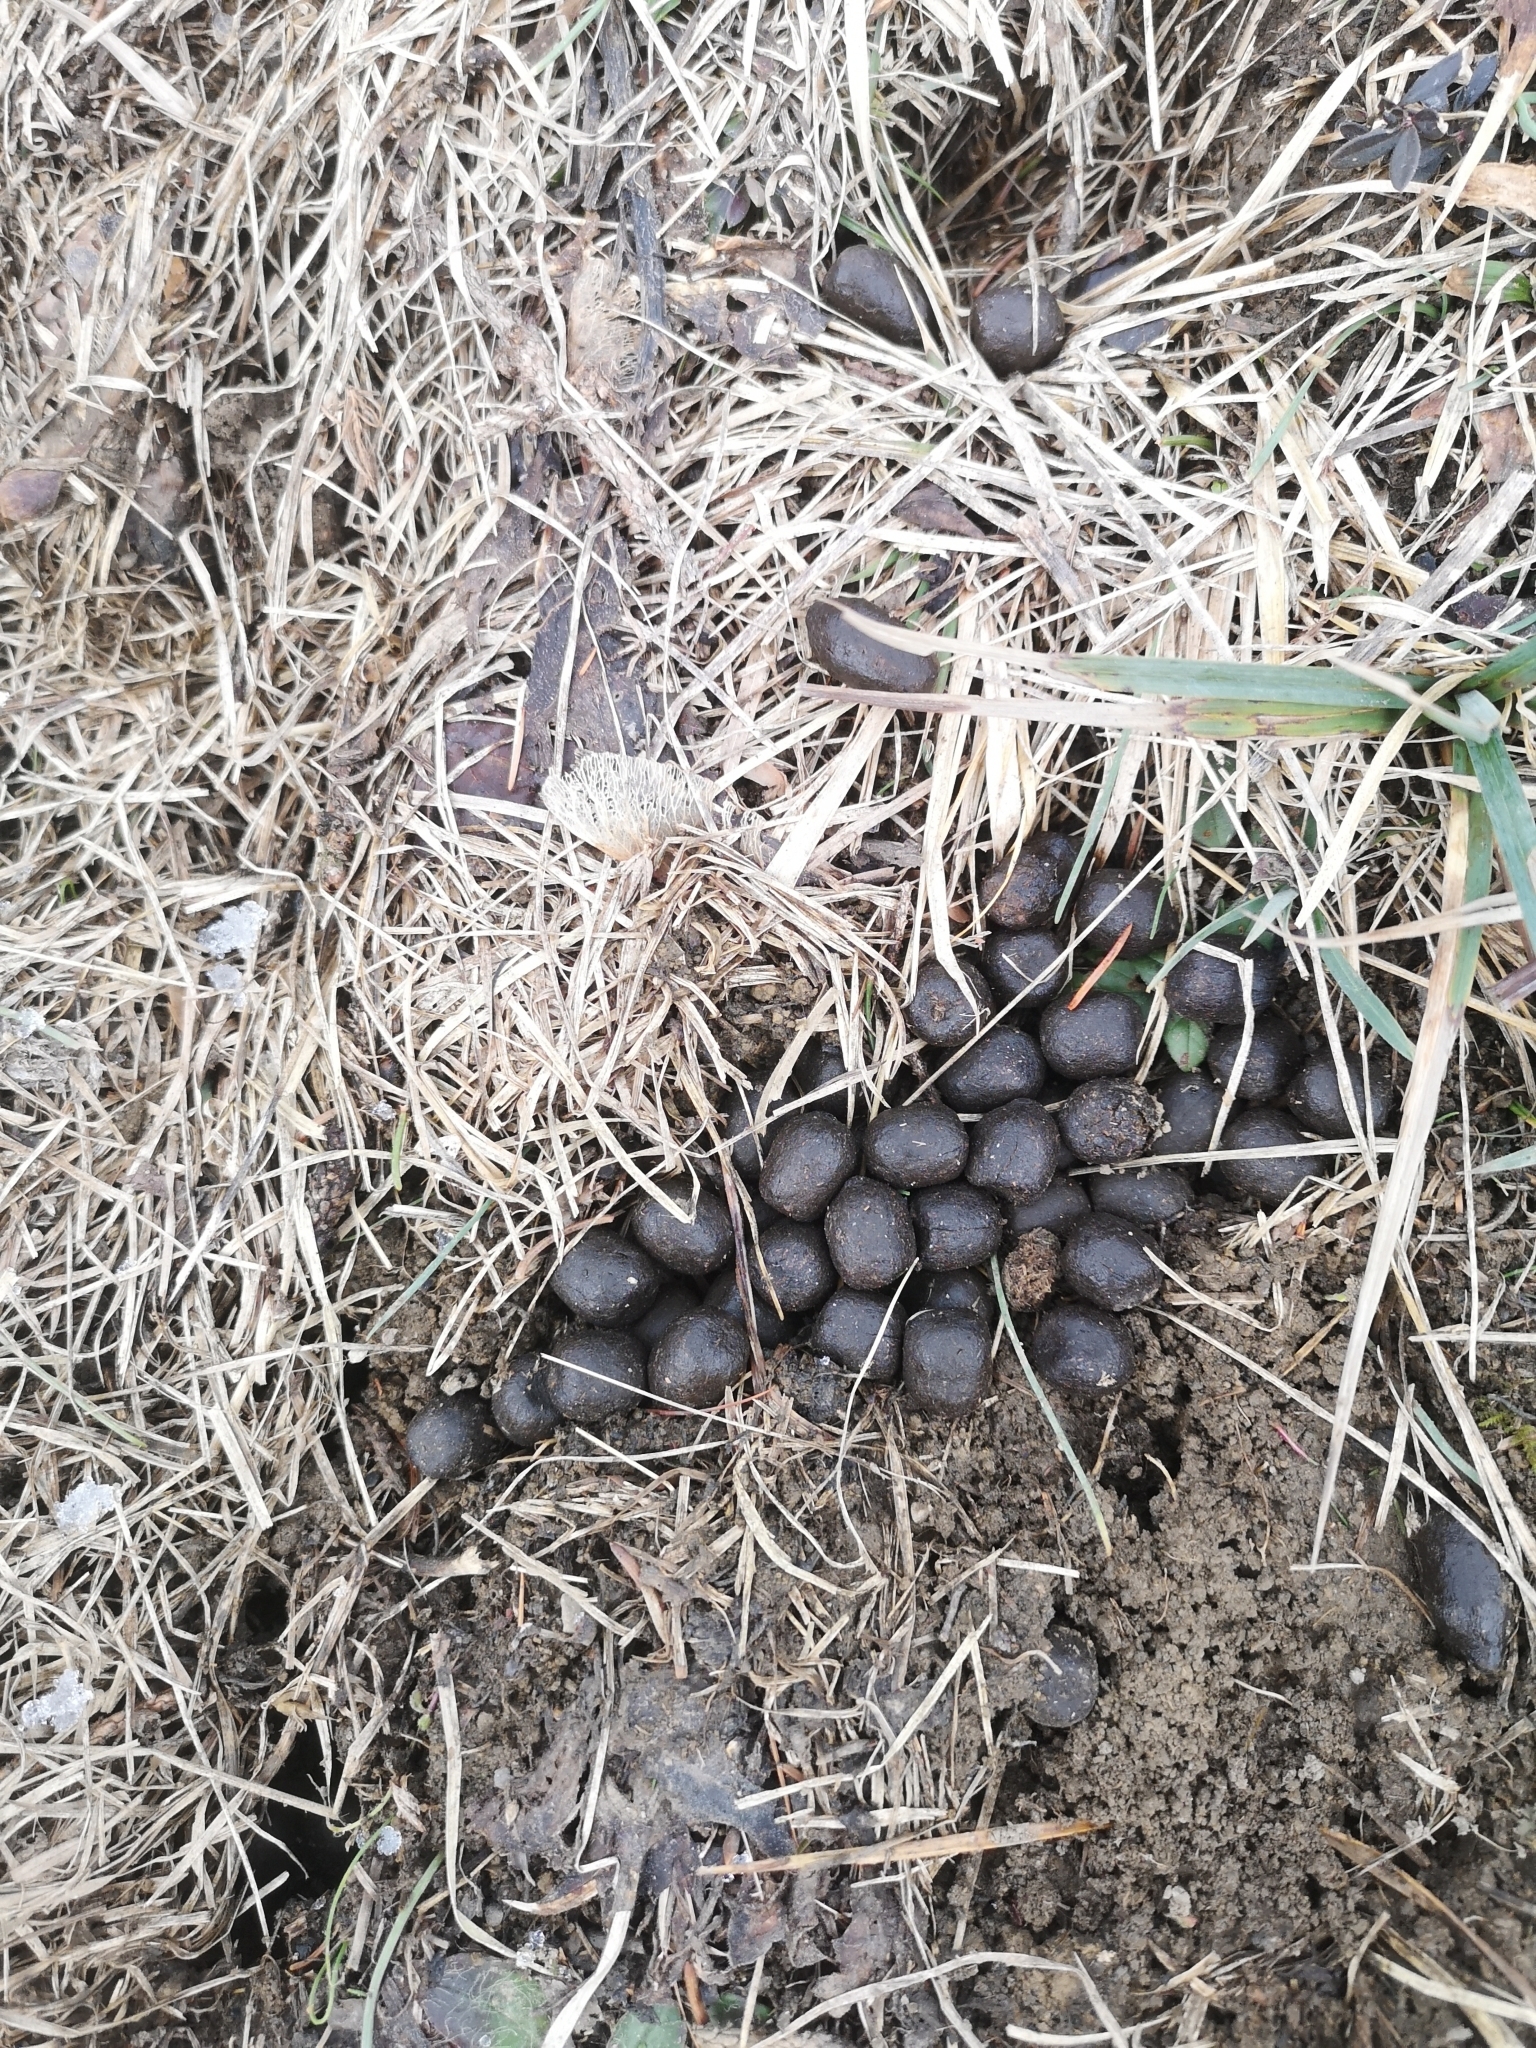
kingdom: Animalia
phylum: Chordata
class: Mammalia
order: Artiodactyla
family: Bovidae
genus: Rupicapra
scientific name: Rupicapra rupicapra
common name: Chamois
